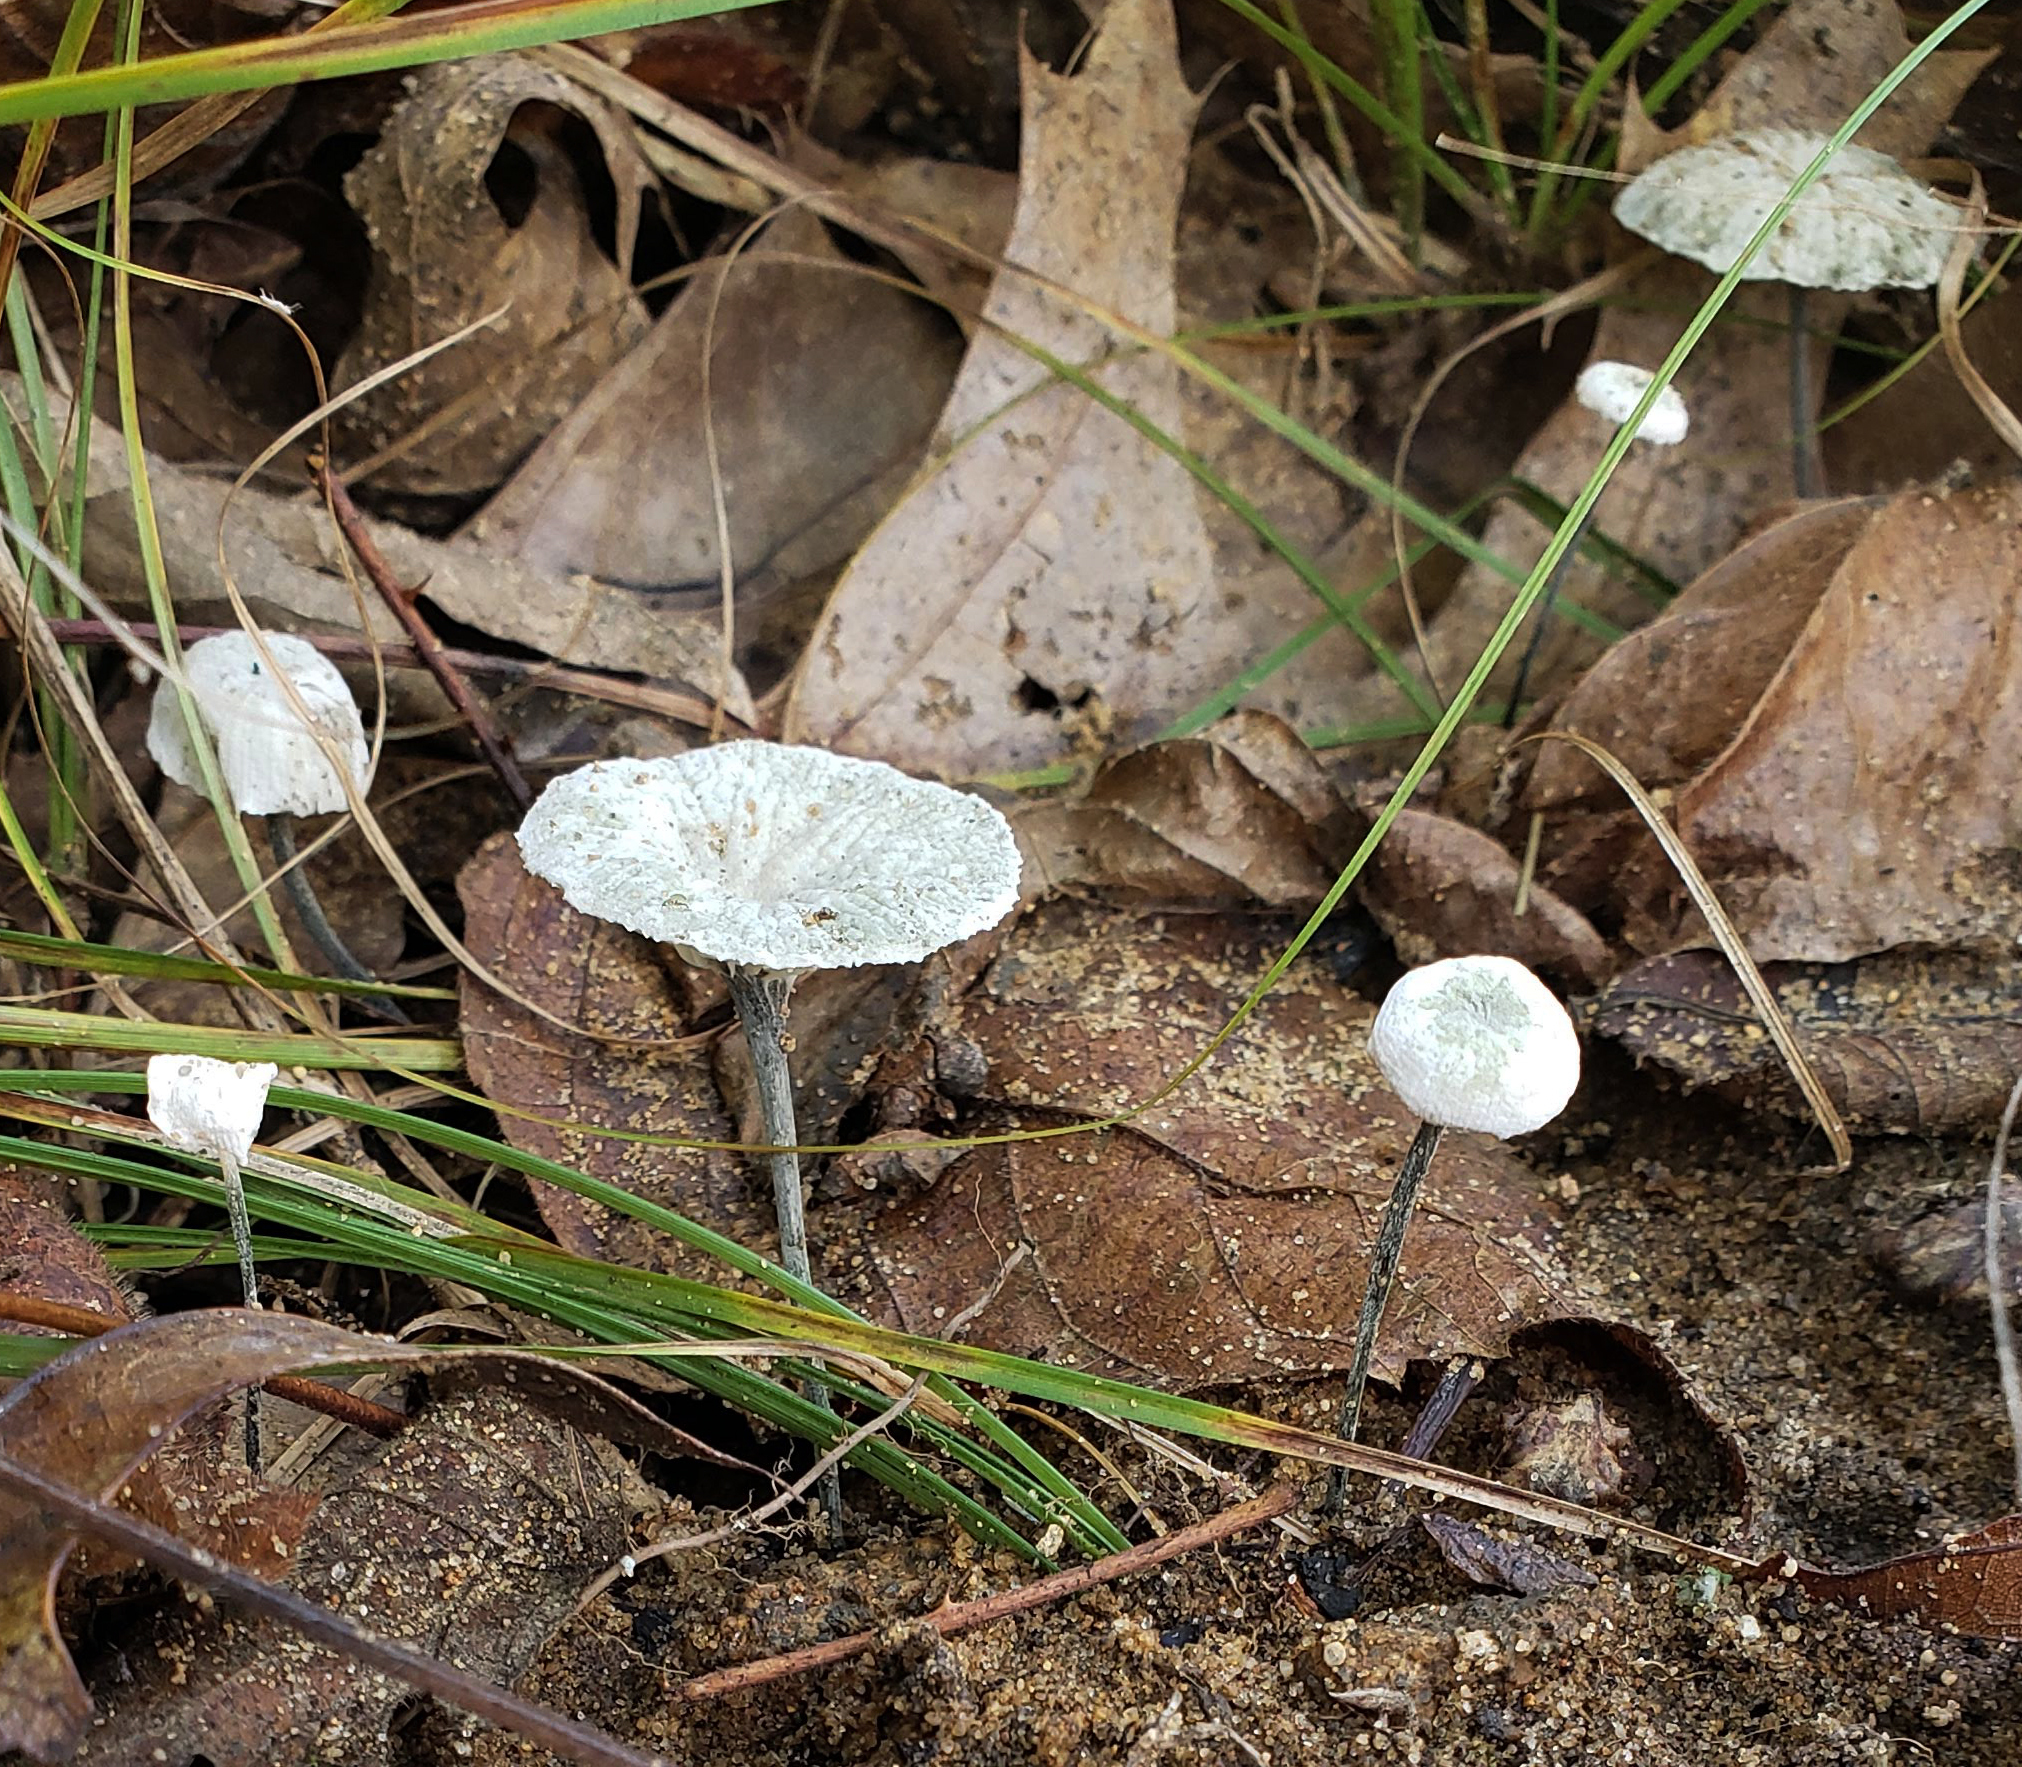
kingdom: Fungi
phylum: Basidiomycota
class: Agaricomycetes
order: Agaricales
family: Marasmiaceae
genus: Tetrapyrgos
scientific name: Tetrapyrgos nigripes
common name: Black-stalked marasmius
